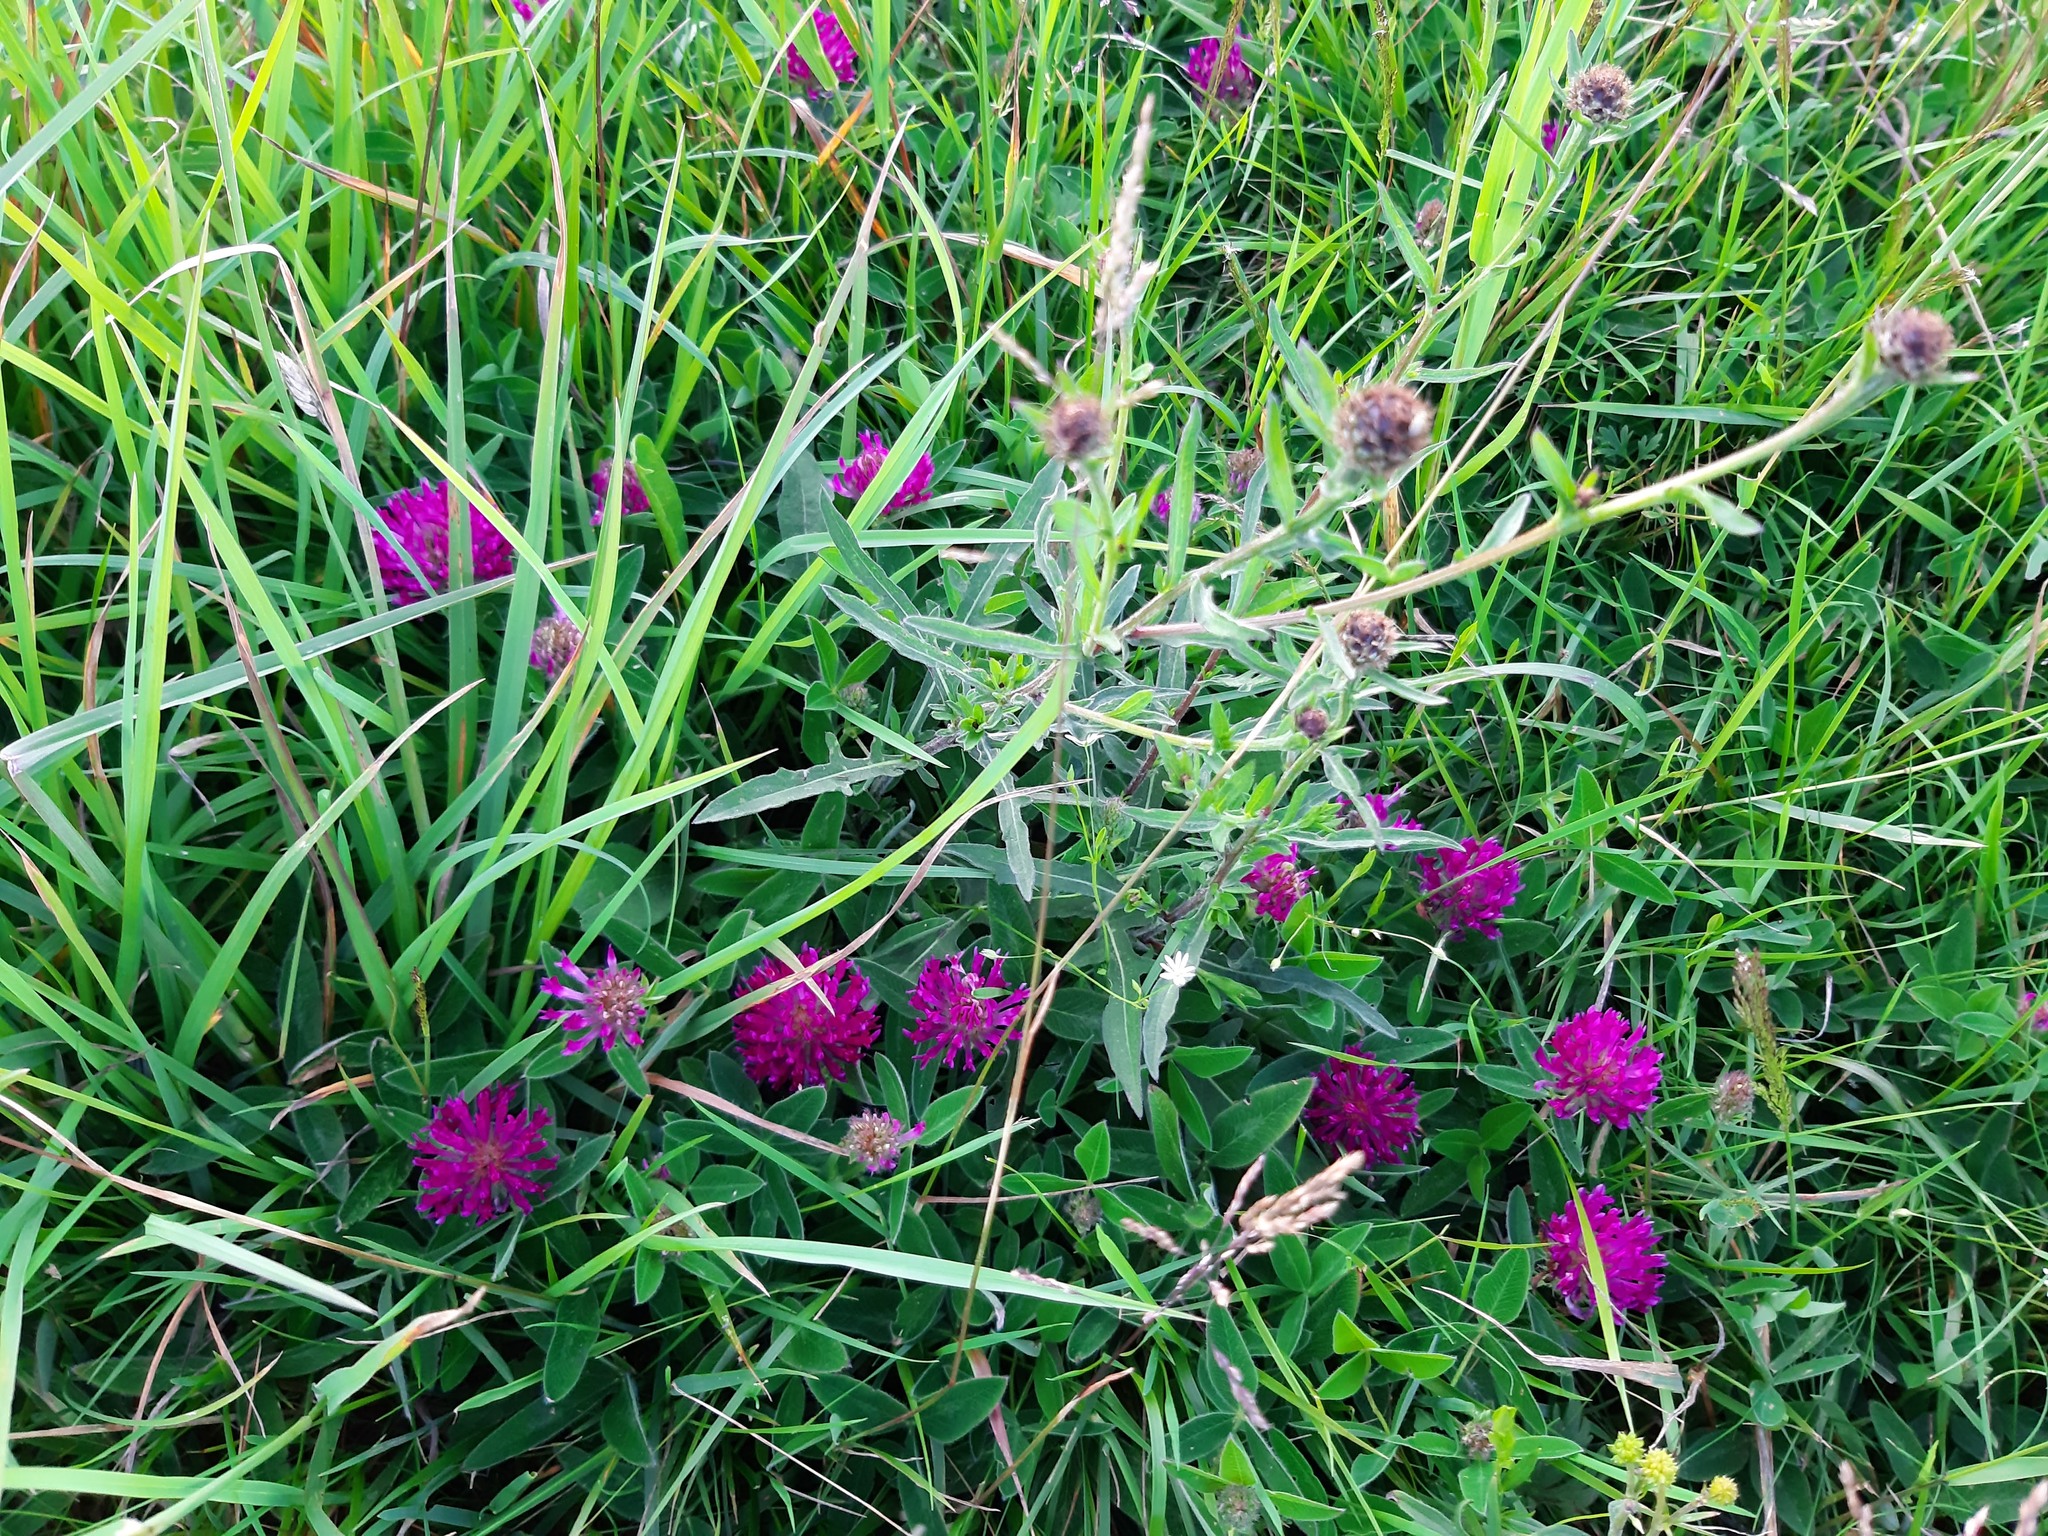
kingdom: Plantae
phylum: Tracheophyta
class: Magnoliopsida
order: Fabales
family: Fabaceae
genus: Trifolium
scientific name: Trifolium medium
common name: Zigzag clover
